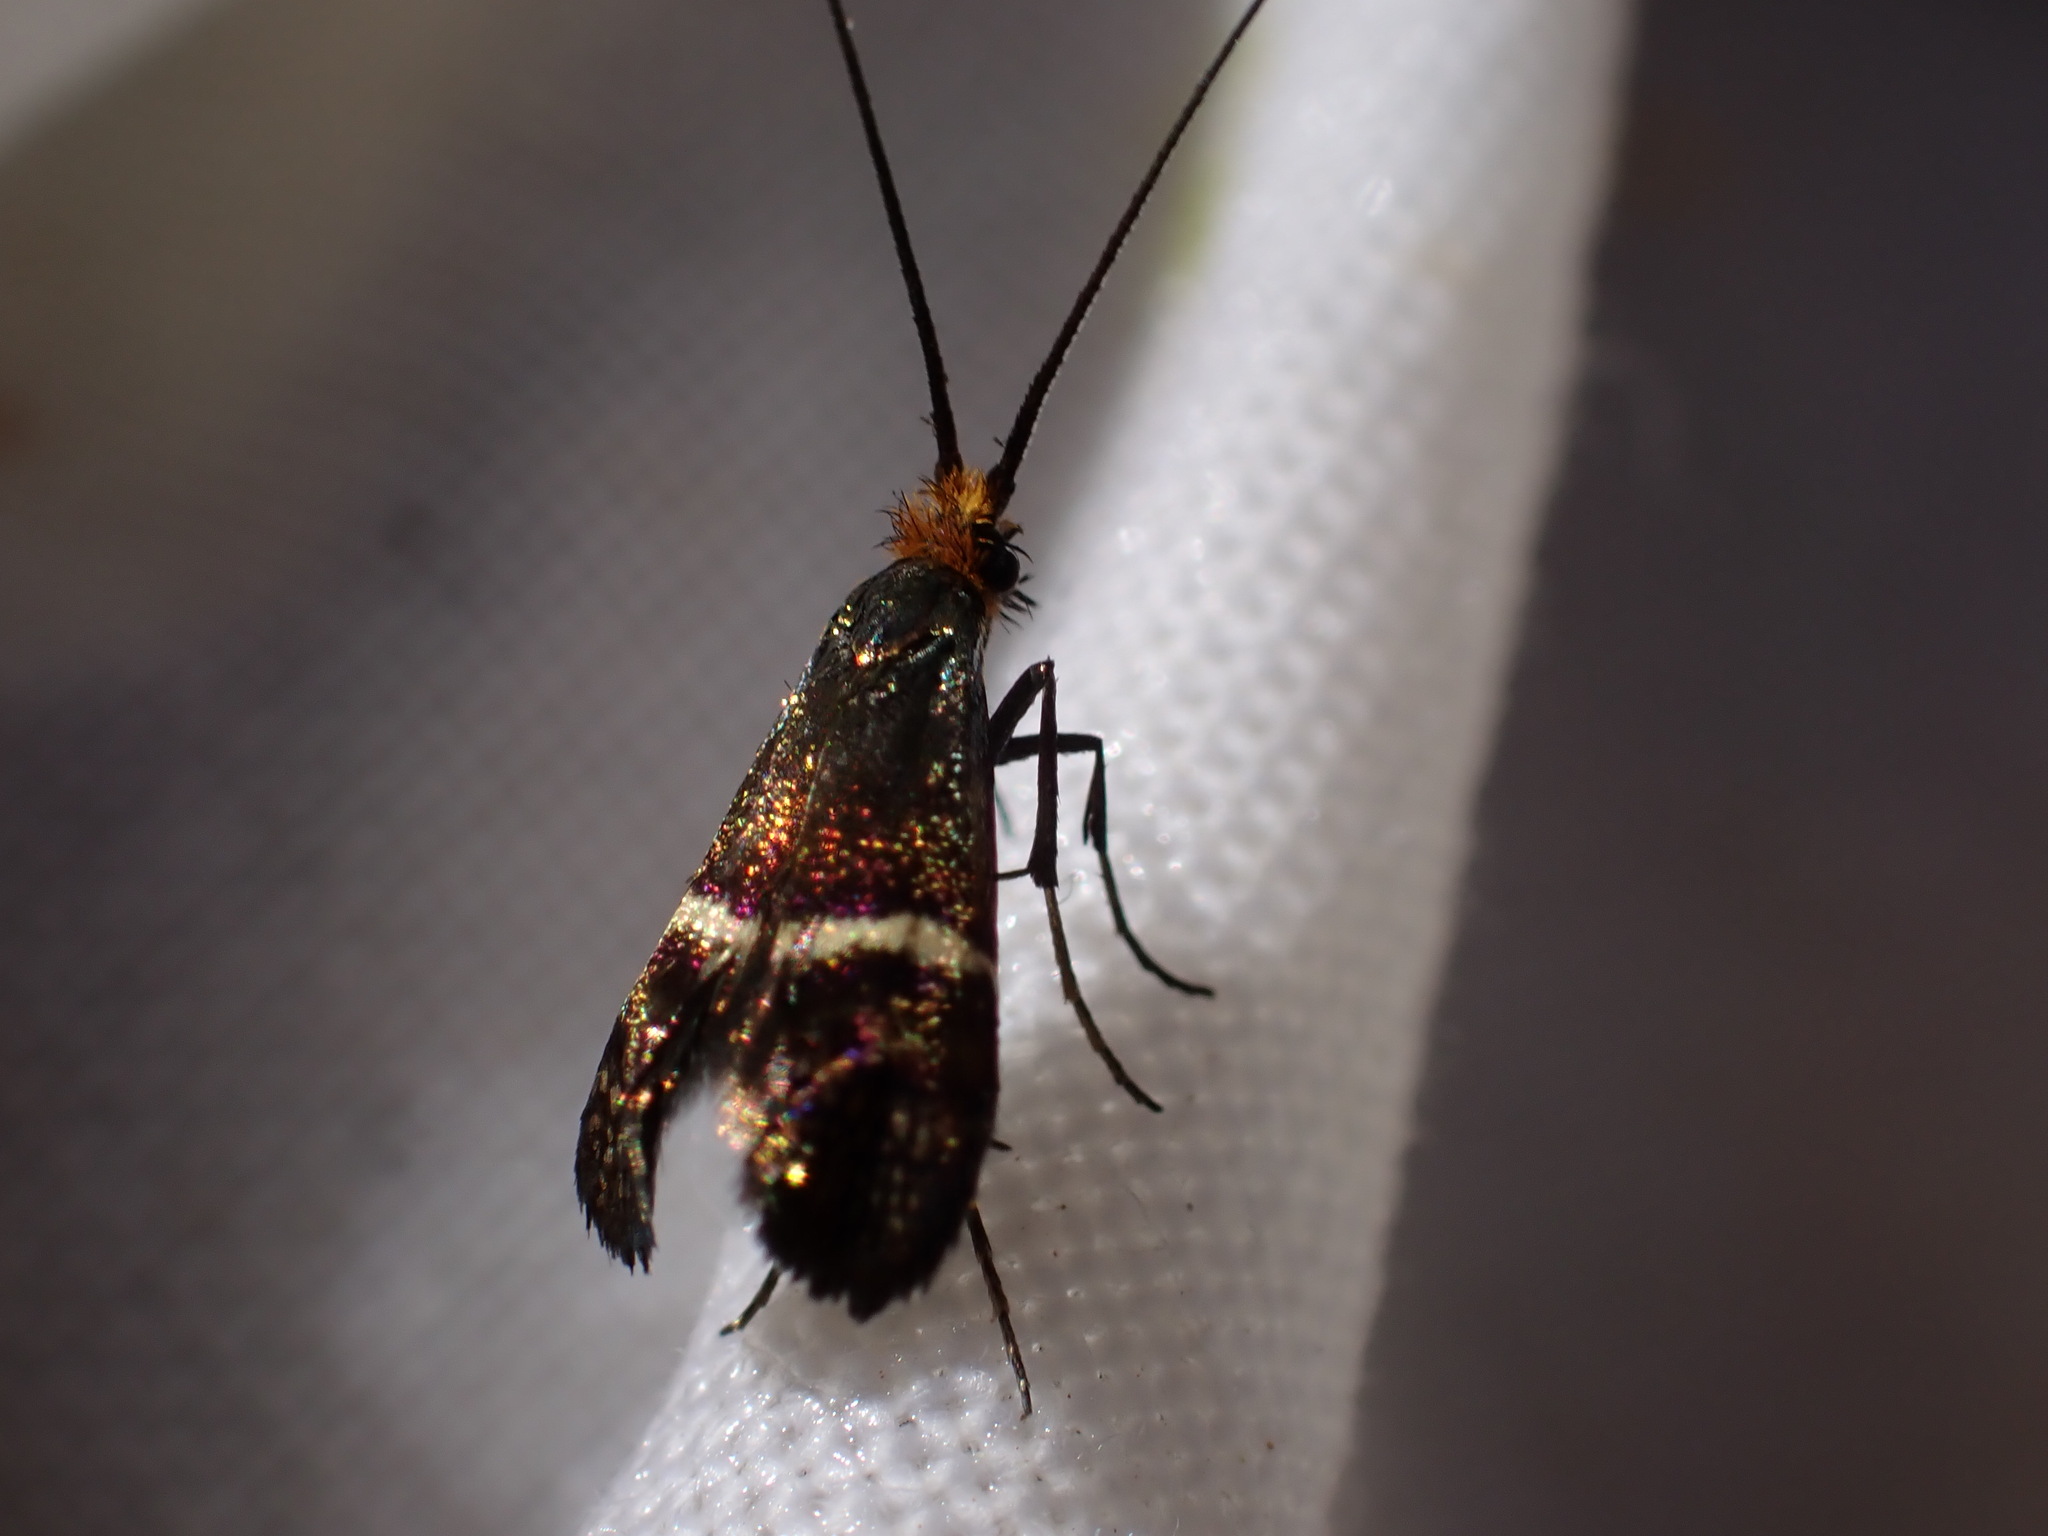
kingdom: Animalia
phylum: Arthropoda
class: Insecta
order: Lepidoptera
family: Adelidae
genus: Adela
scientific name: Adela australis
